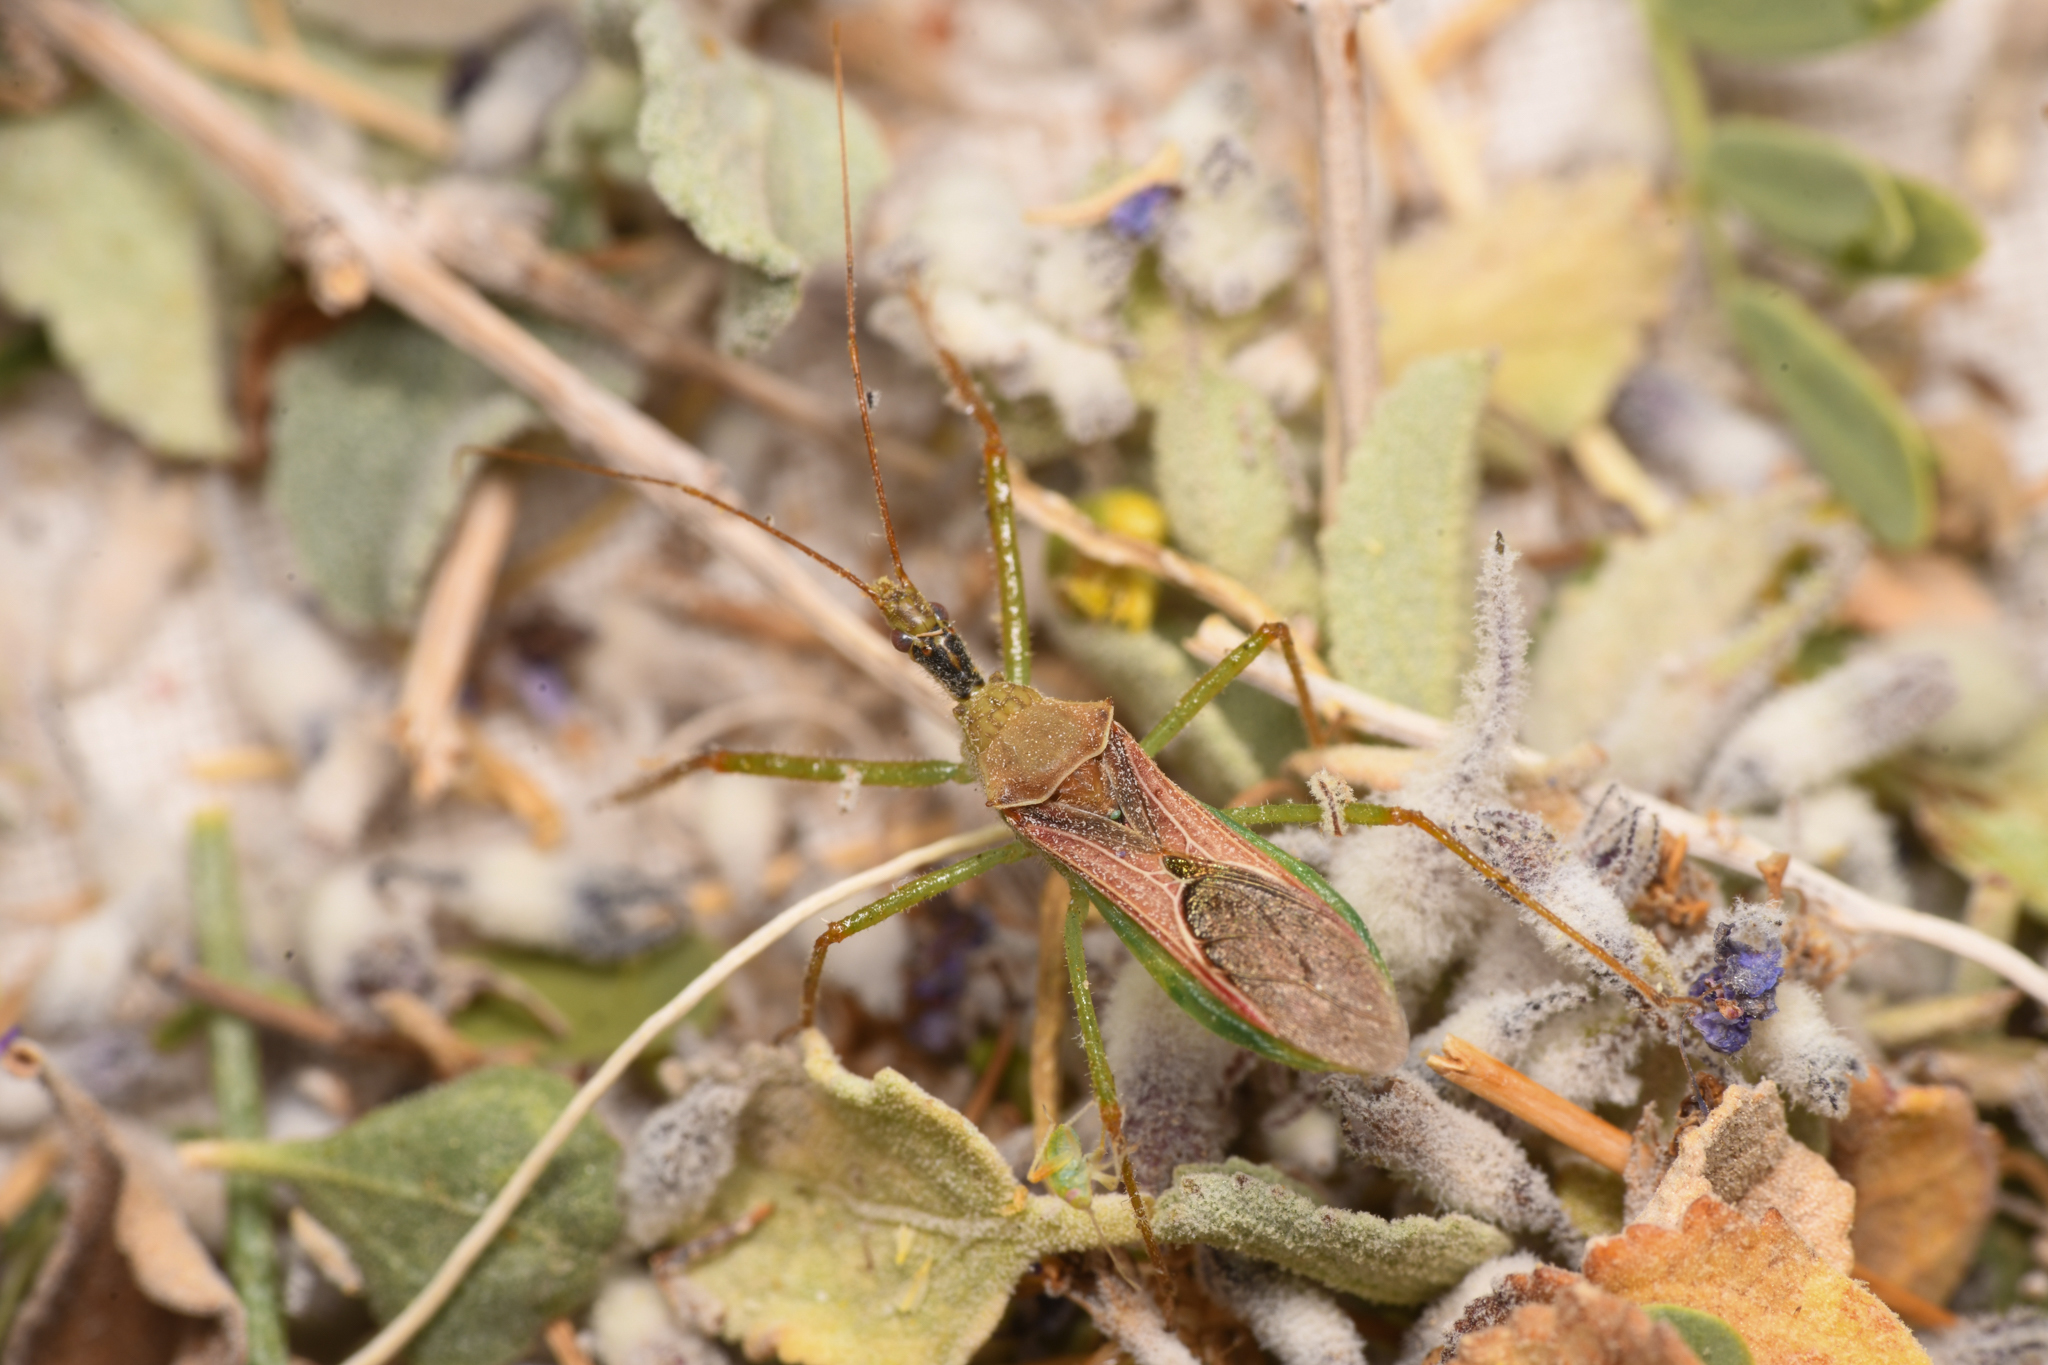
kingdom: Animalia
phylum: Arthropoda
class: Insecta
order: Hemiptera
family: Reduviidae
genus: Zelus
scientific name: Zelus renardii
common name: Assassin bug
